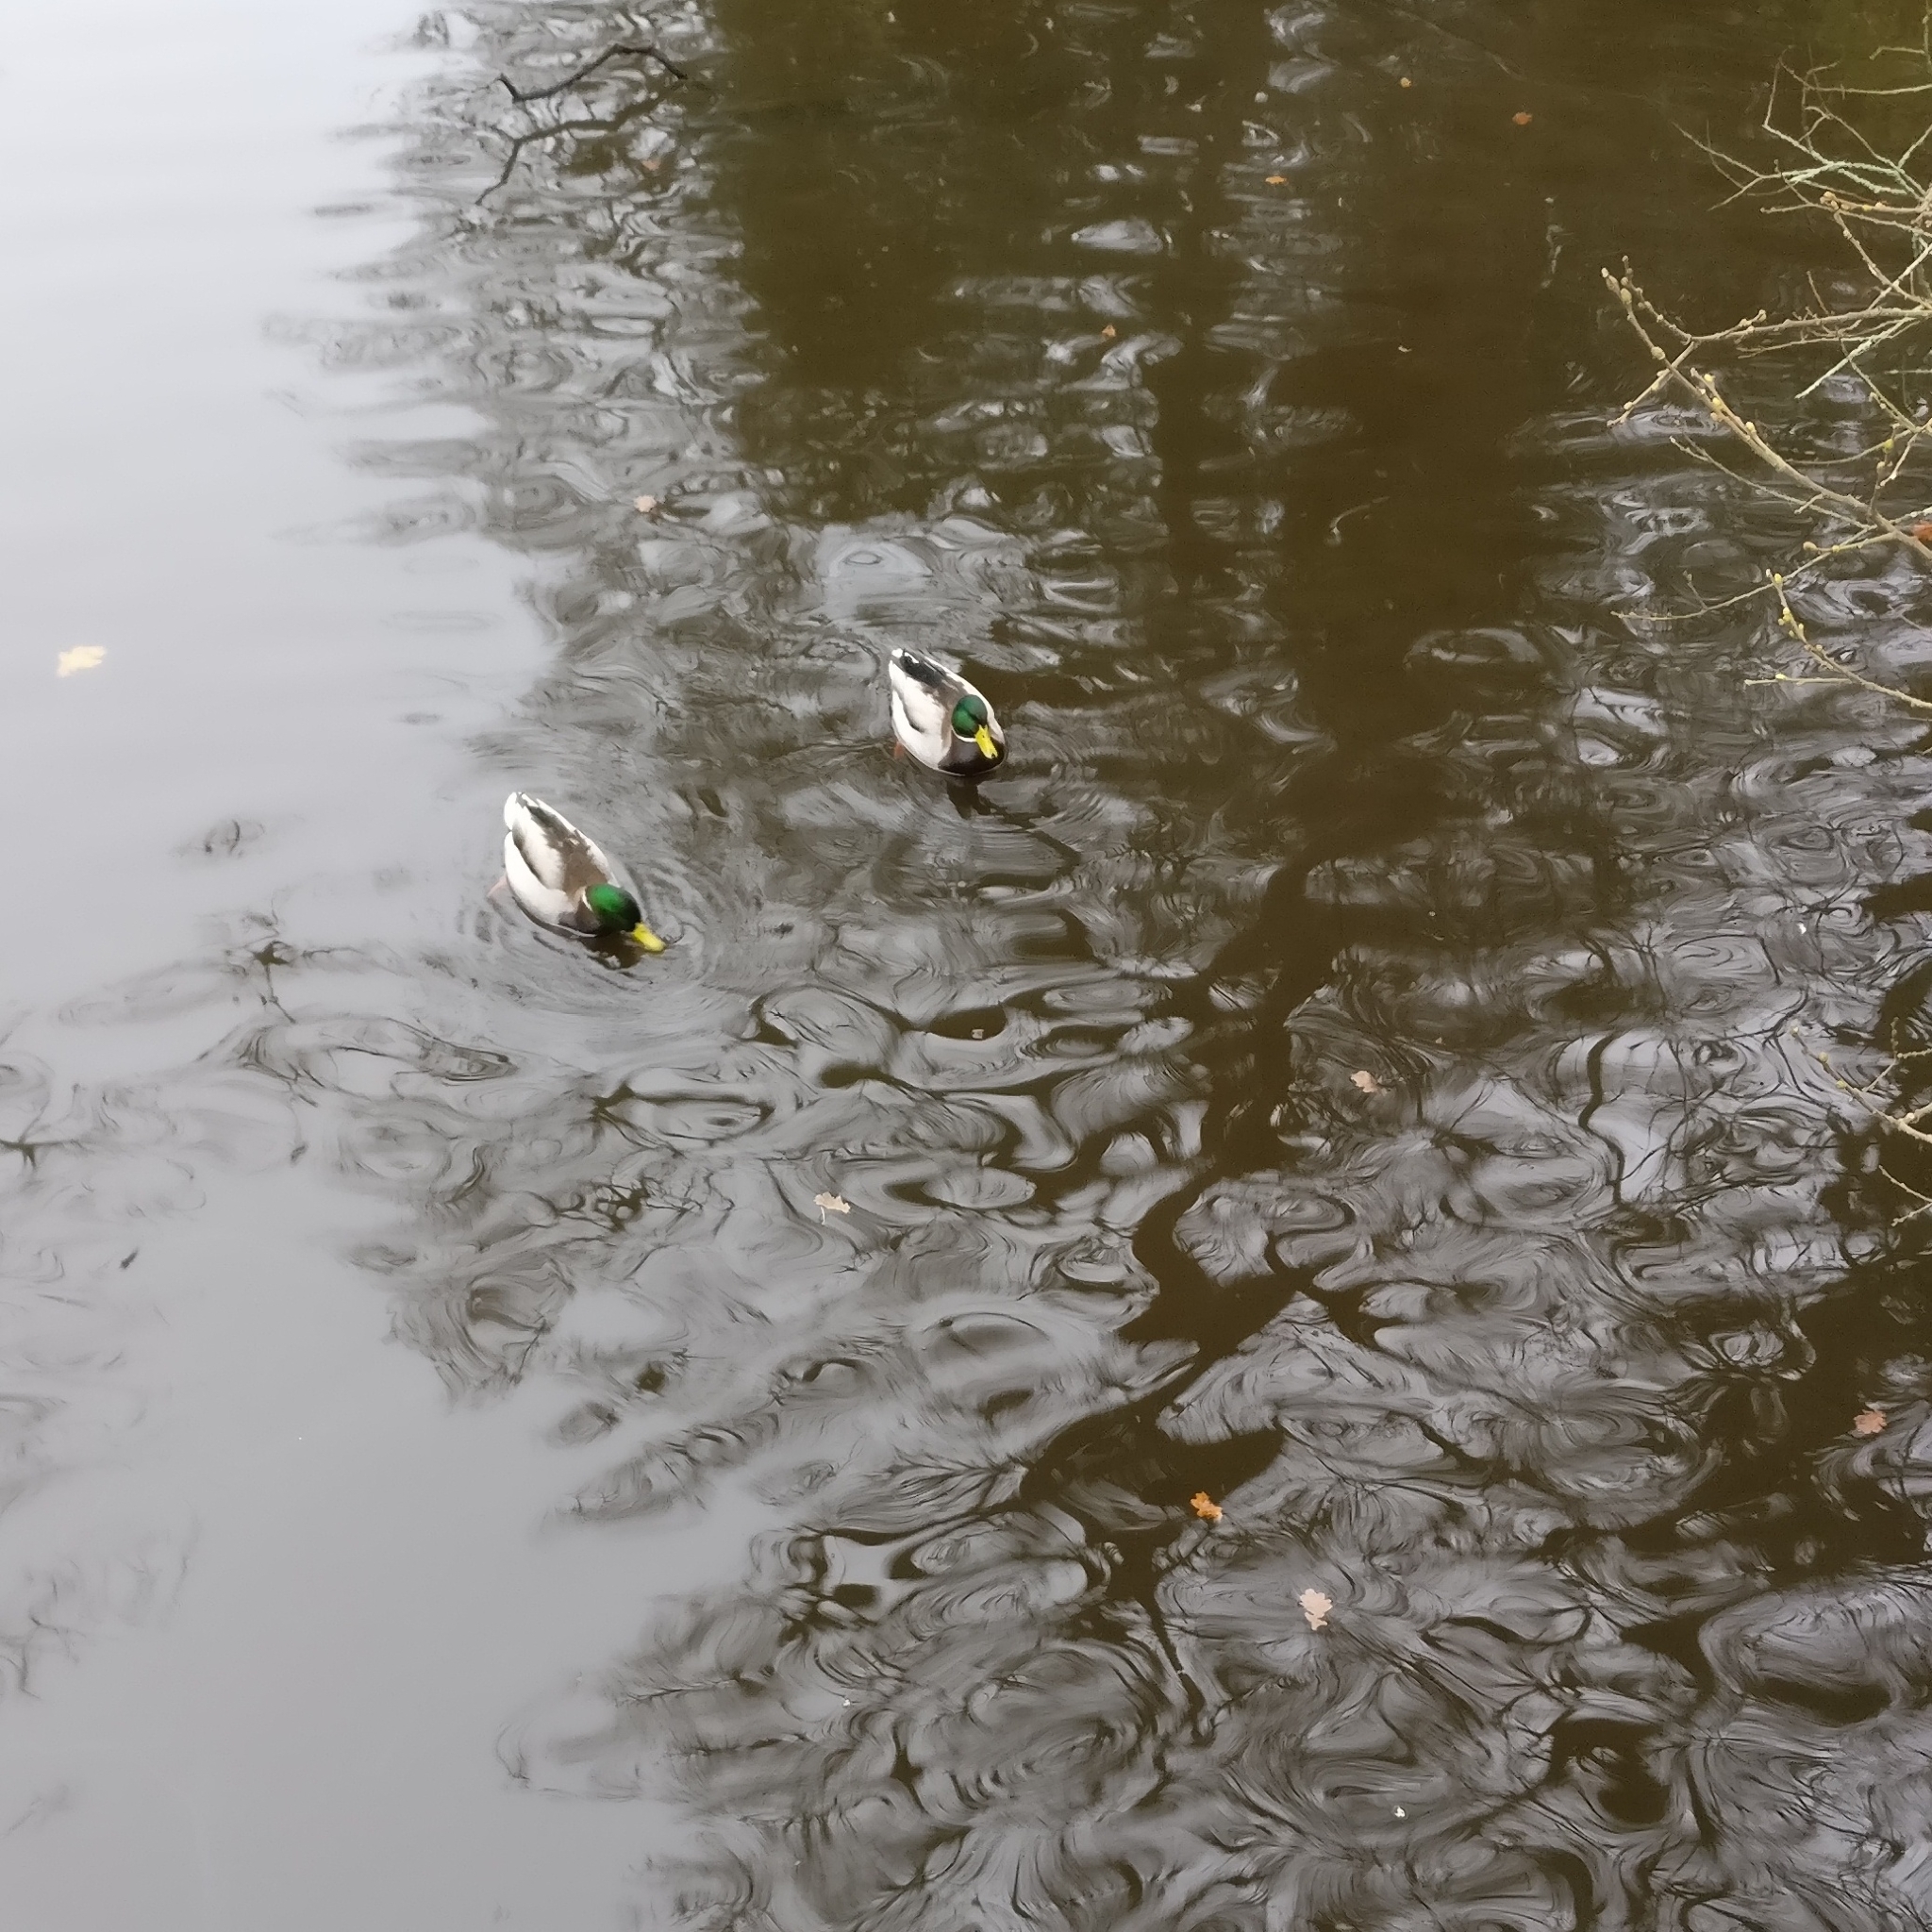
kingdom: Animalia
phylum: Chordata
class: Aves
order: Anseriformes
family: Anatidae
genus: Anas
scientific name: Anas platyrhynchos
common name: Mallard
